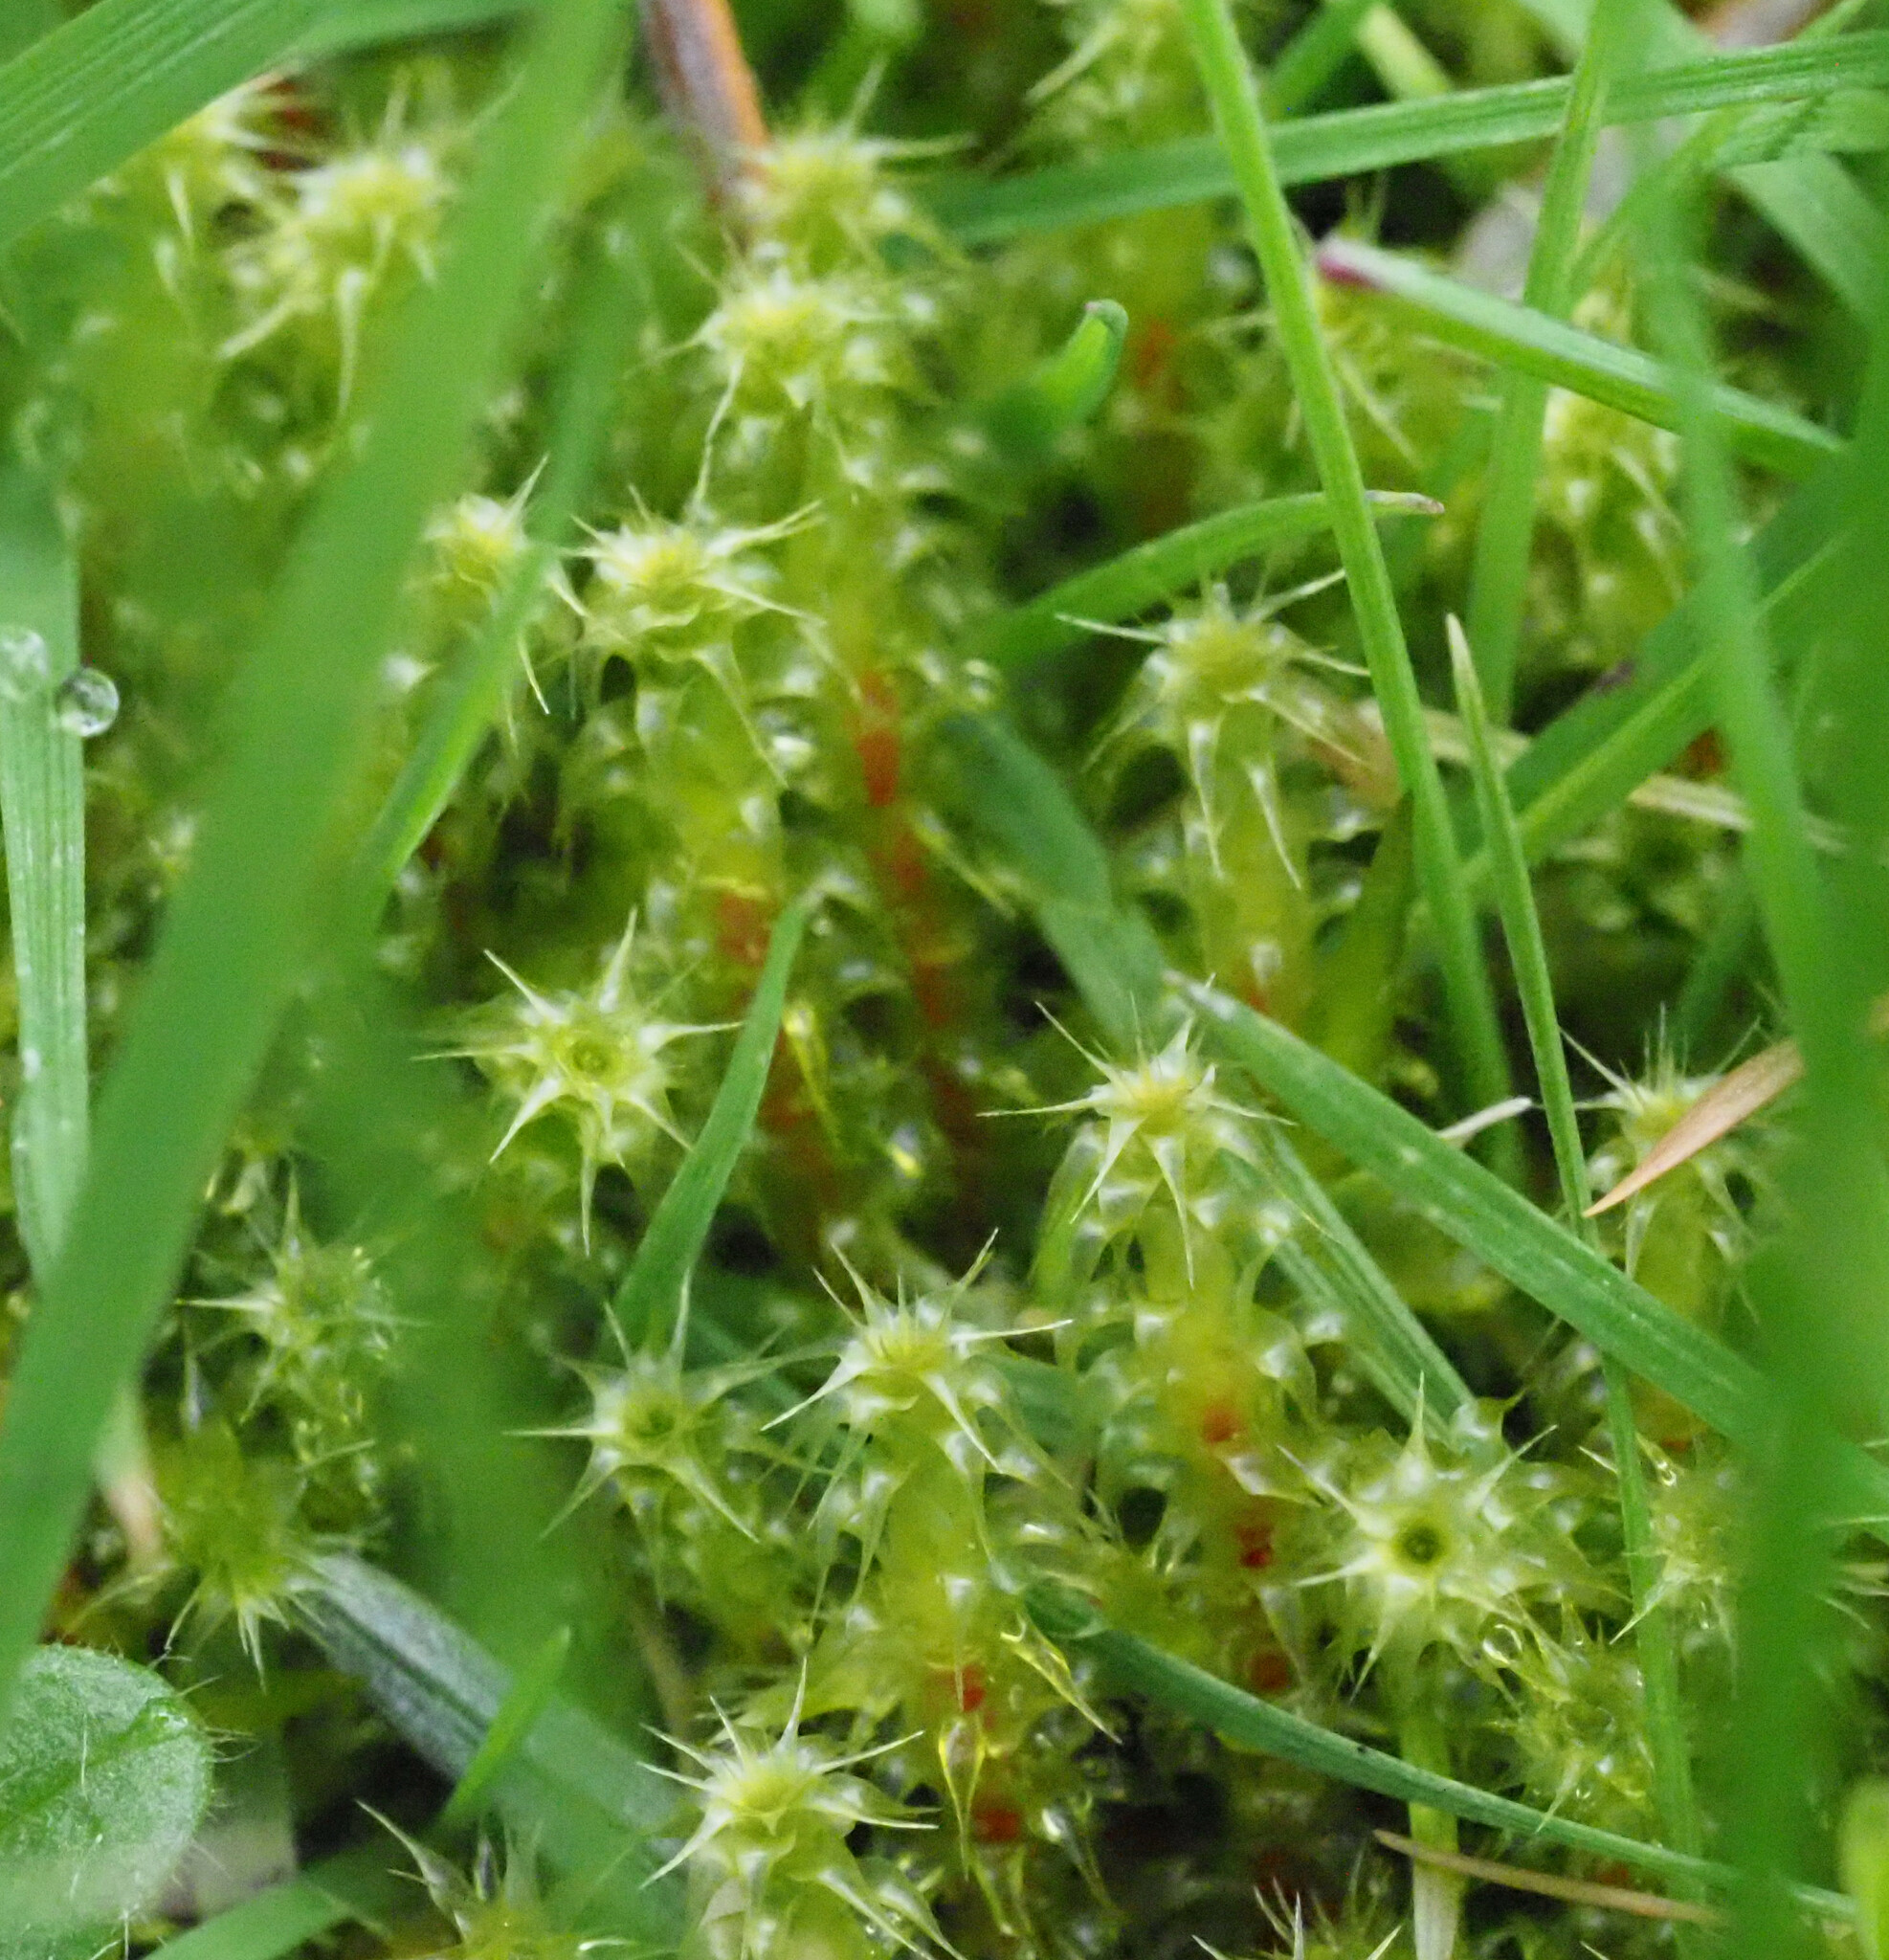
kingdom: Plantae
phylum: Bryophyta
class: Bryopsida
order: Hypnales
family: Hylocomiaceae
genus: Rhytidiadelphus
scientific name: Rhytidiadelphus squarrosus
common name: Springy turf-moss
